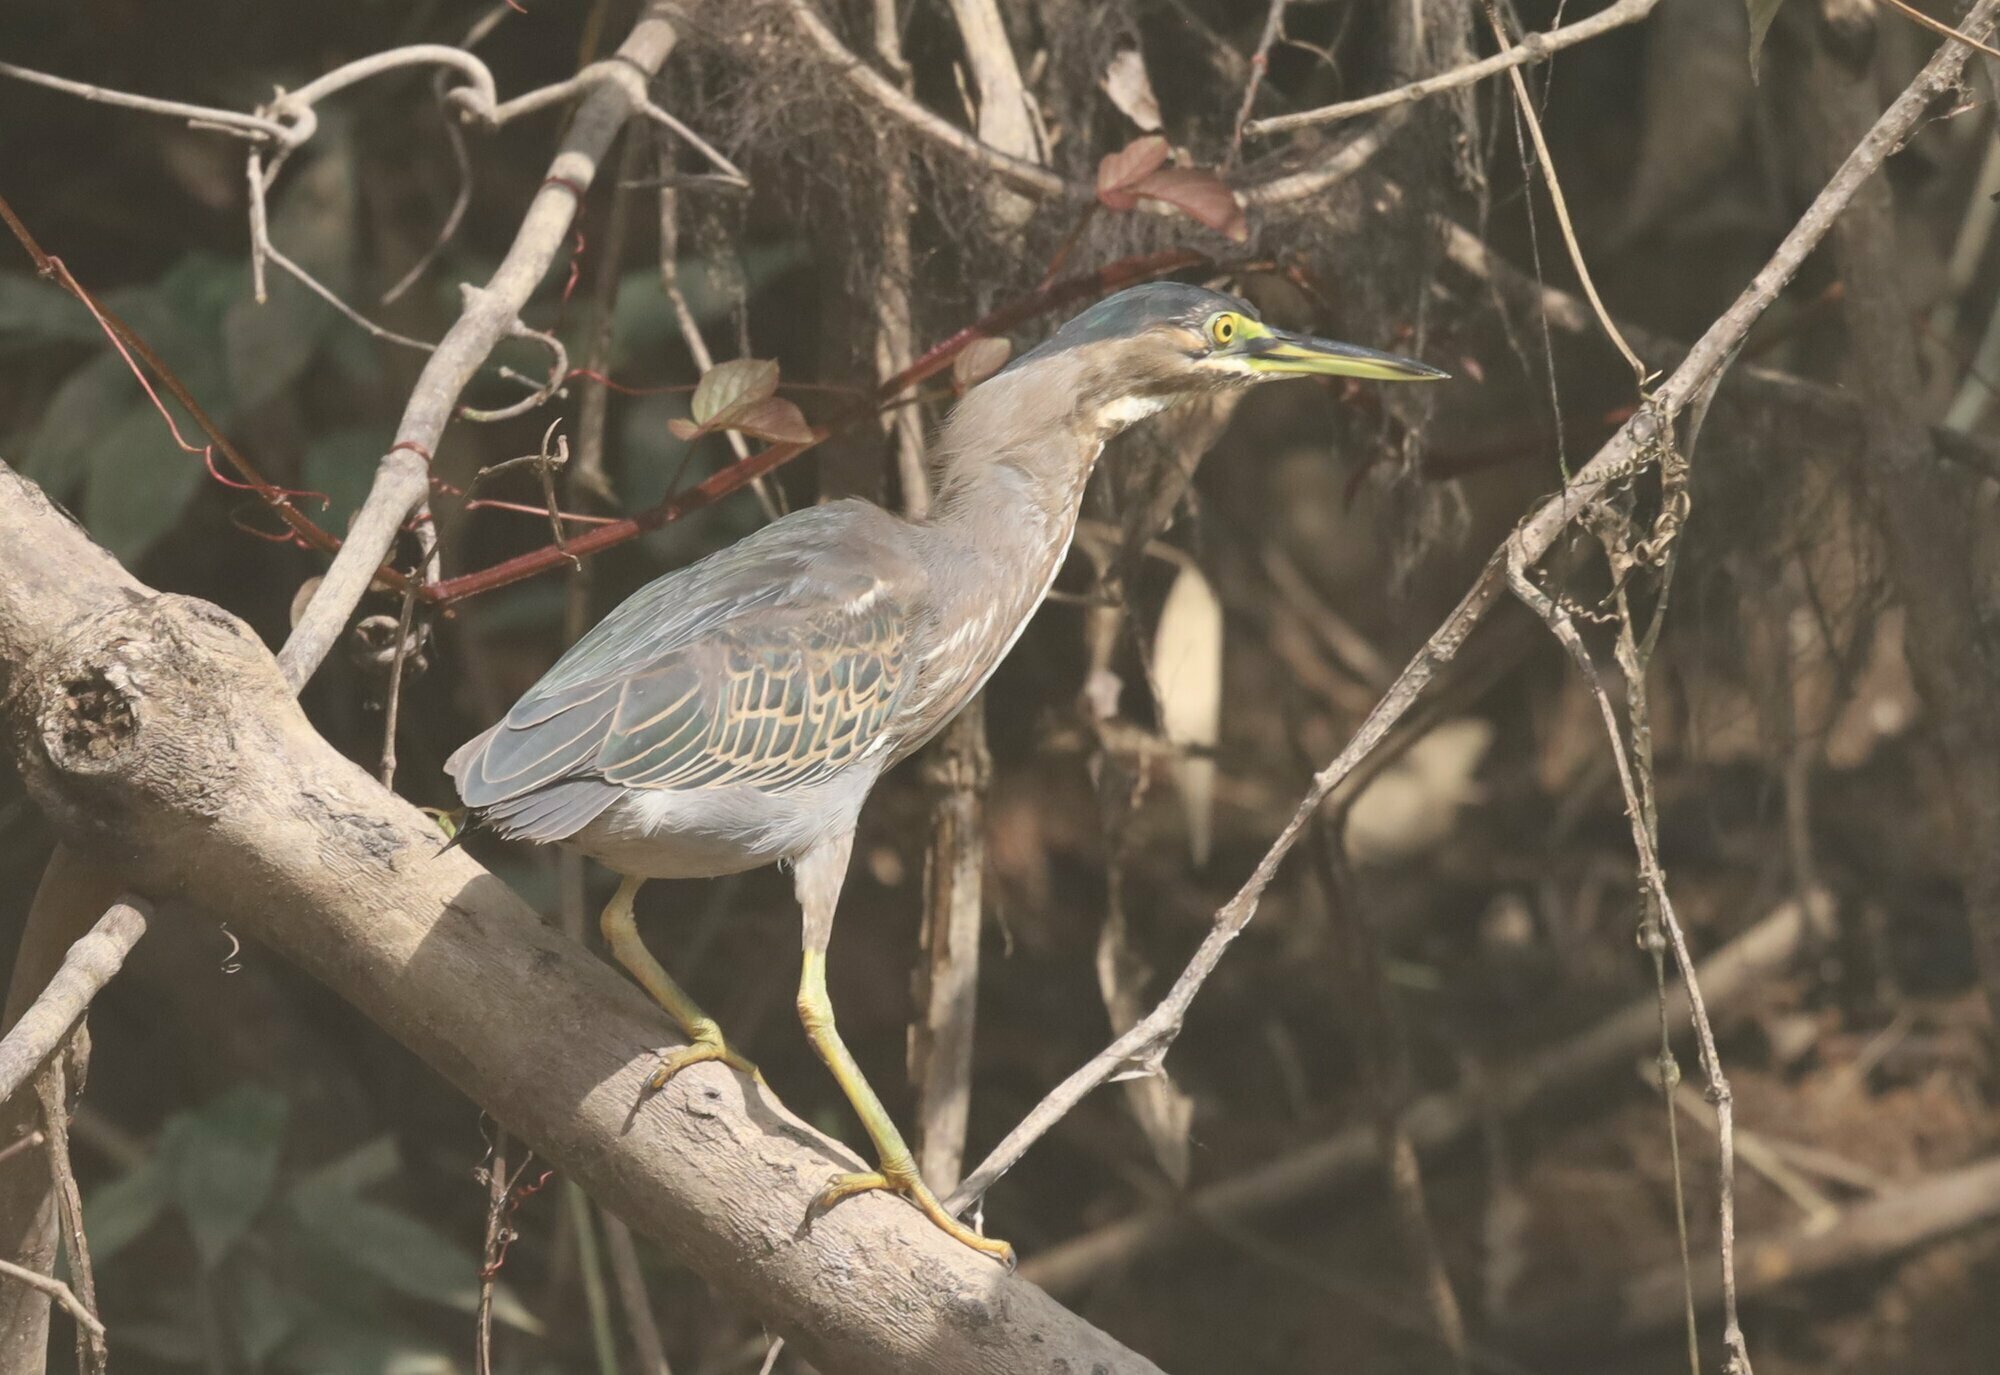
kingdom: Animalia
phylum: Chordata
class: Aves
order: Pelecaniformes
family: Ardeidae
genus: Butorides
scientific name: Butorides striata
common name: Striated heron
